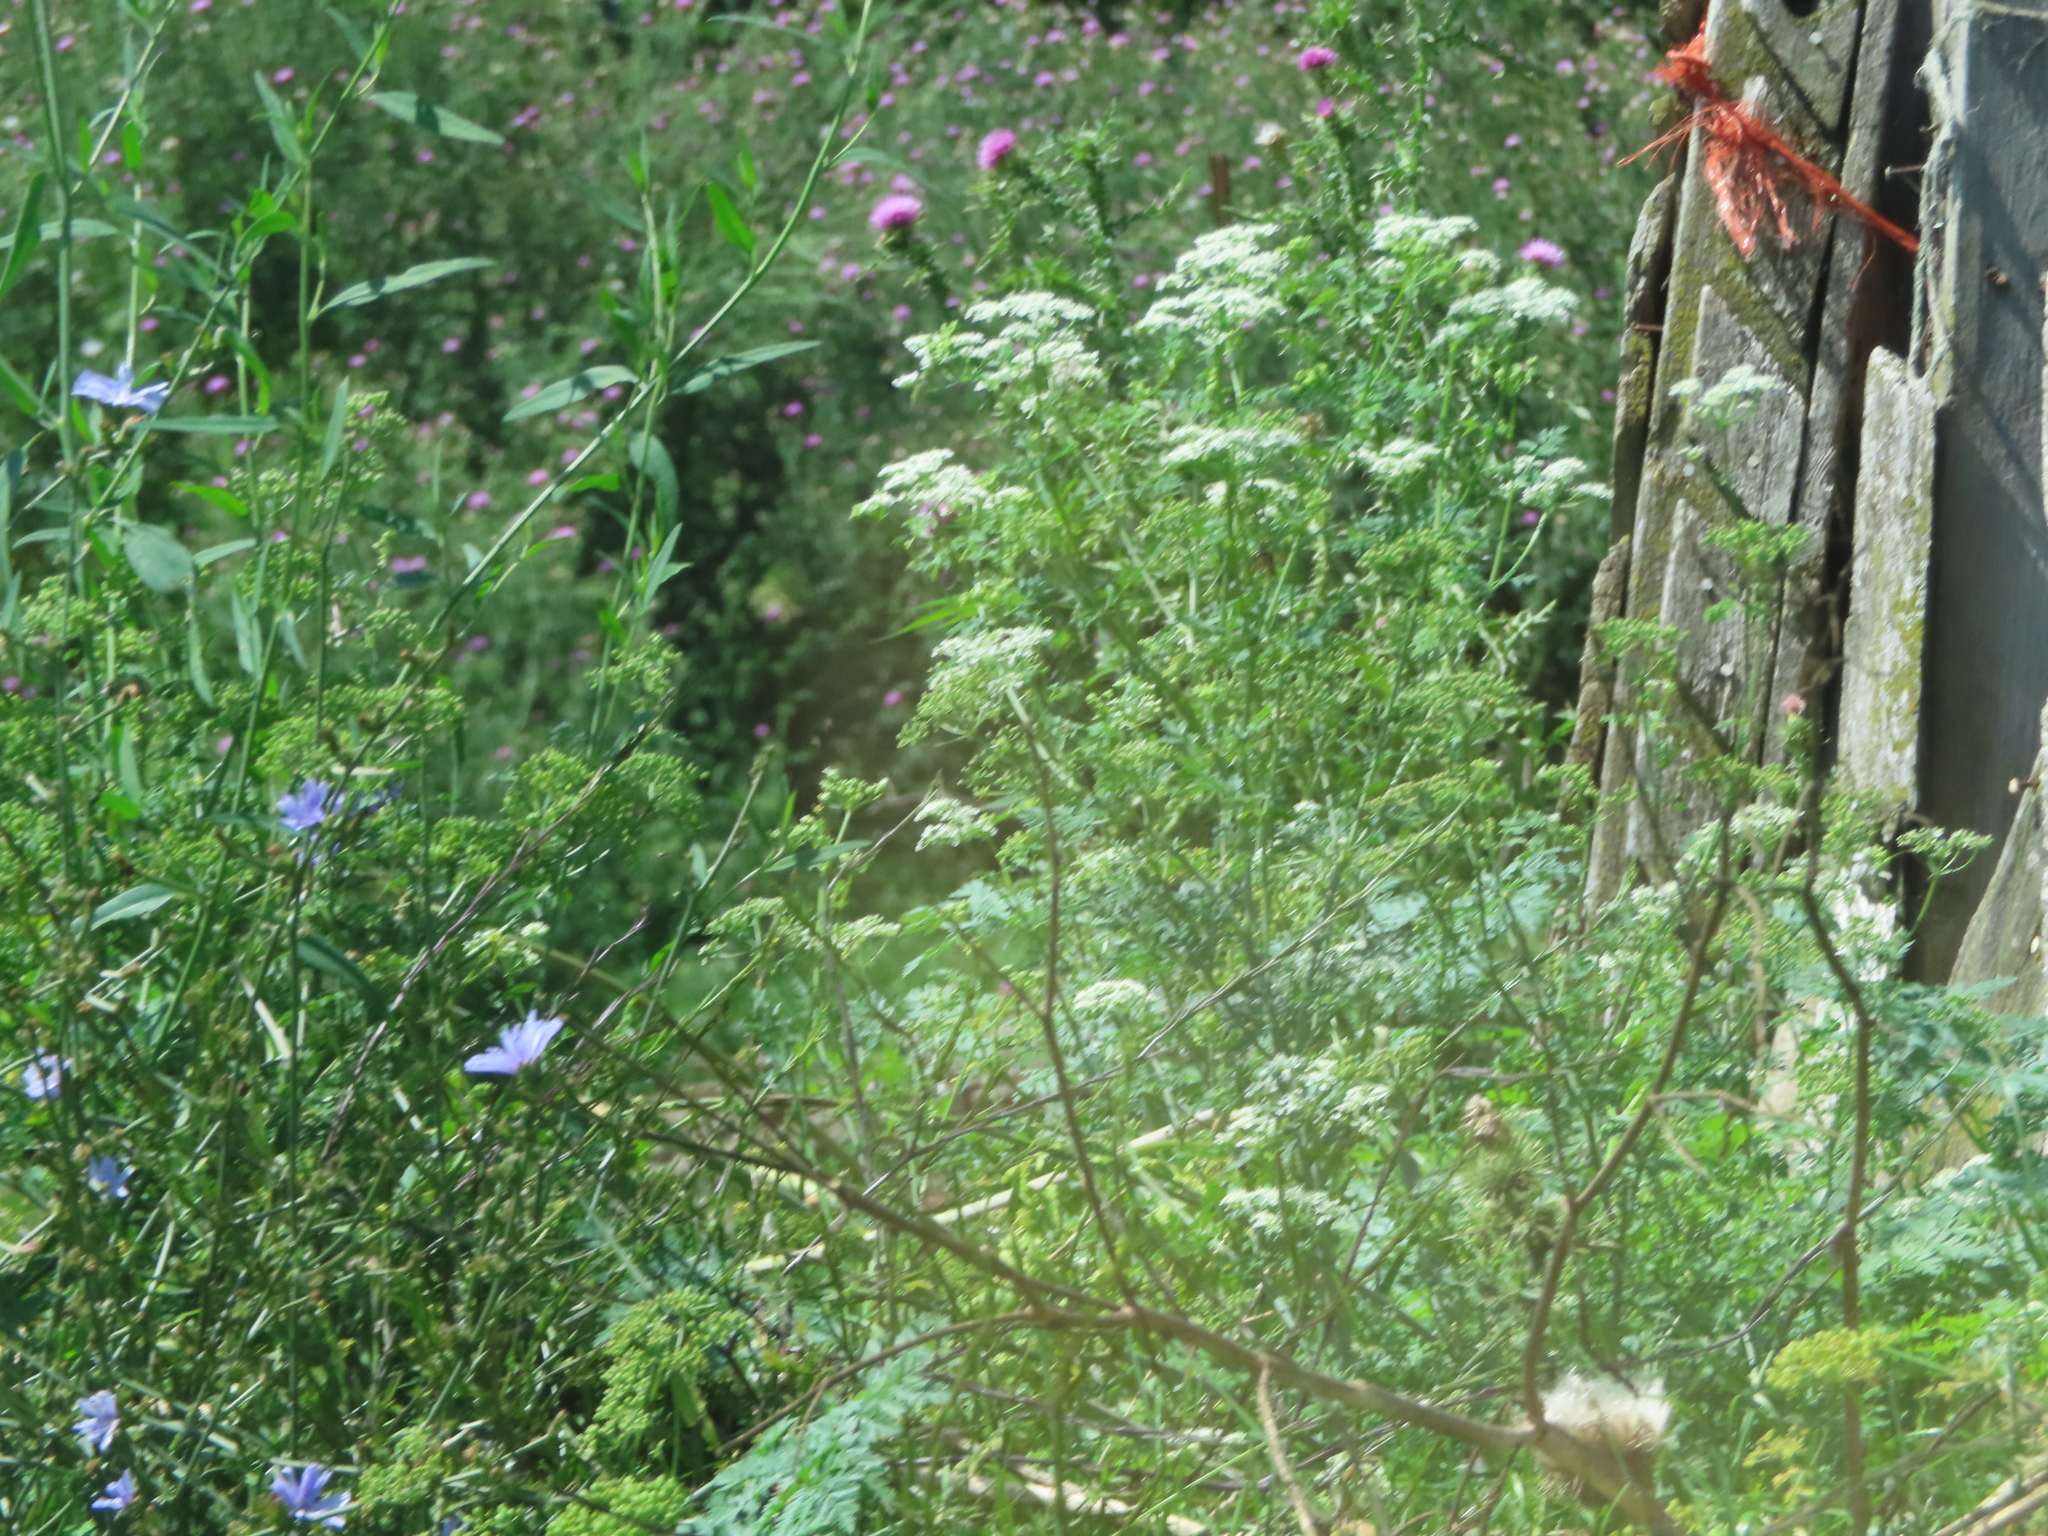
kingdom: Plantae
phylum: Tracheophyta
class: Magnoliopsida
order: Apiales
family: Apiaceae
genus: Conium
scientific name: Conium maculatum
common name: Hemlock
